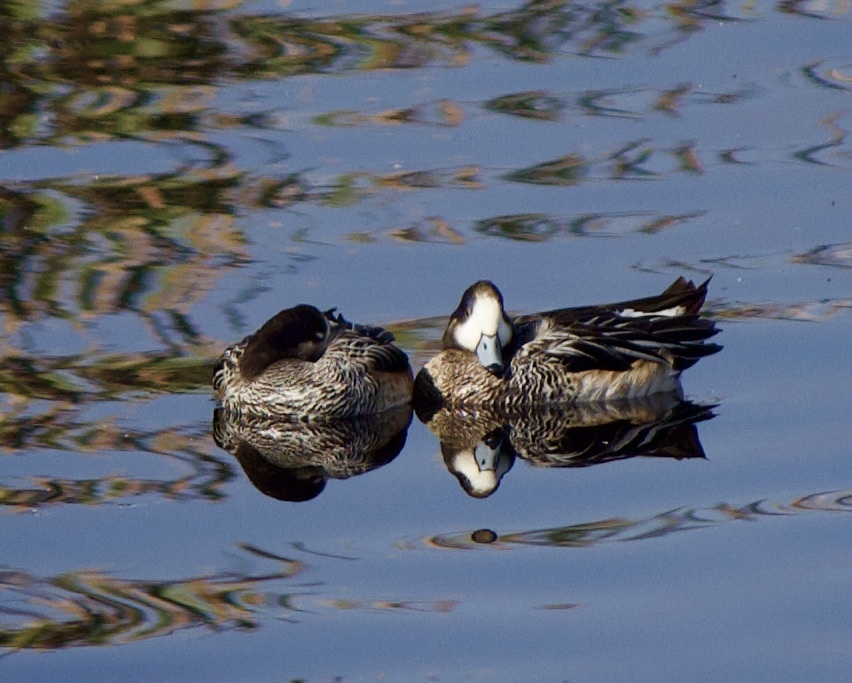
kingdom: Animalia
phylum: Chordata
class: Aves
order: Anseriformes
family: Anatidae
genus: Mareca
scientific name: Mareca sibilatrix
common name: Chiloe wigeon
